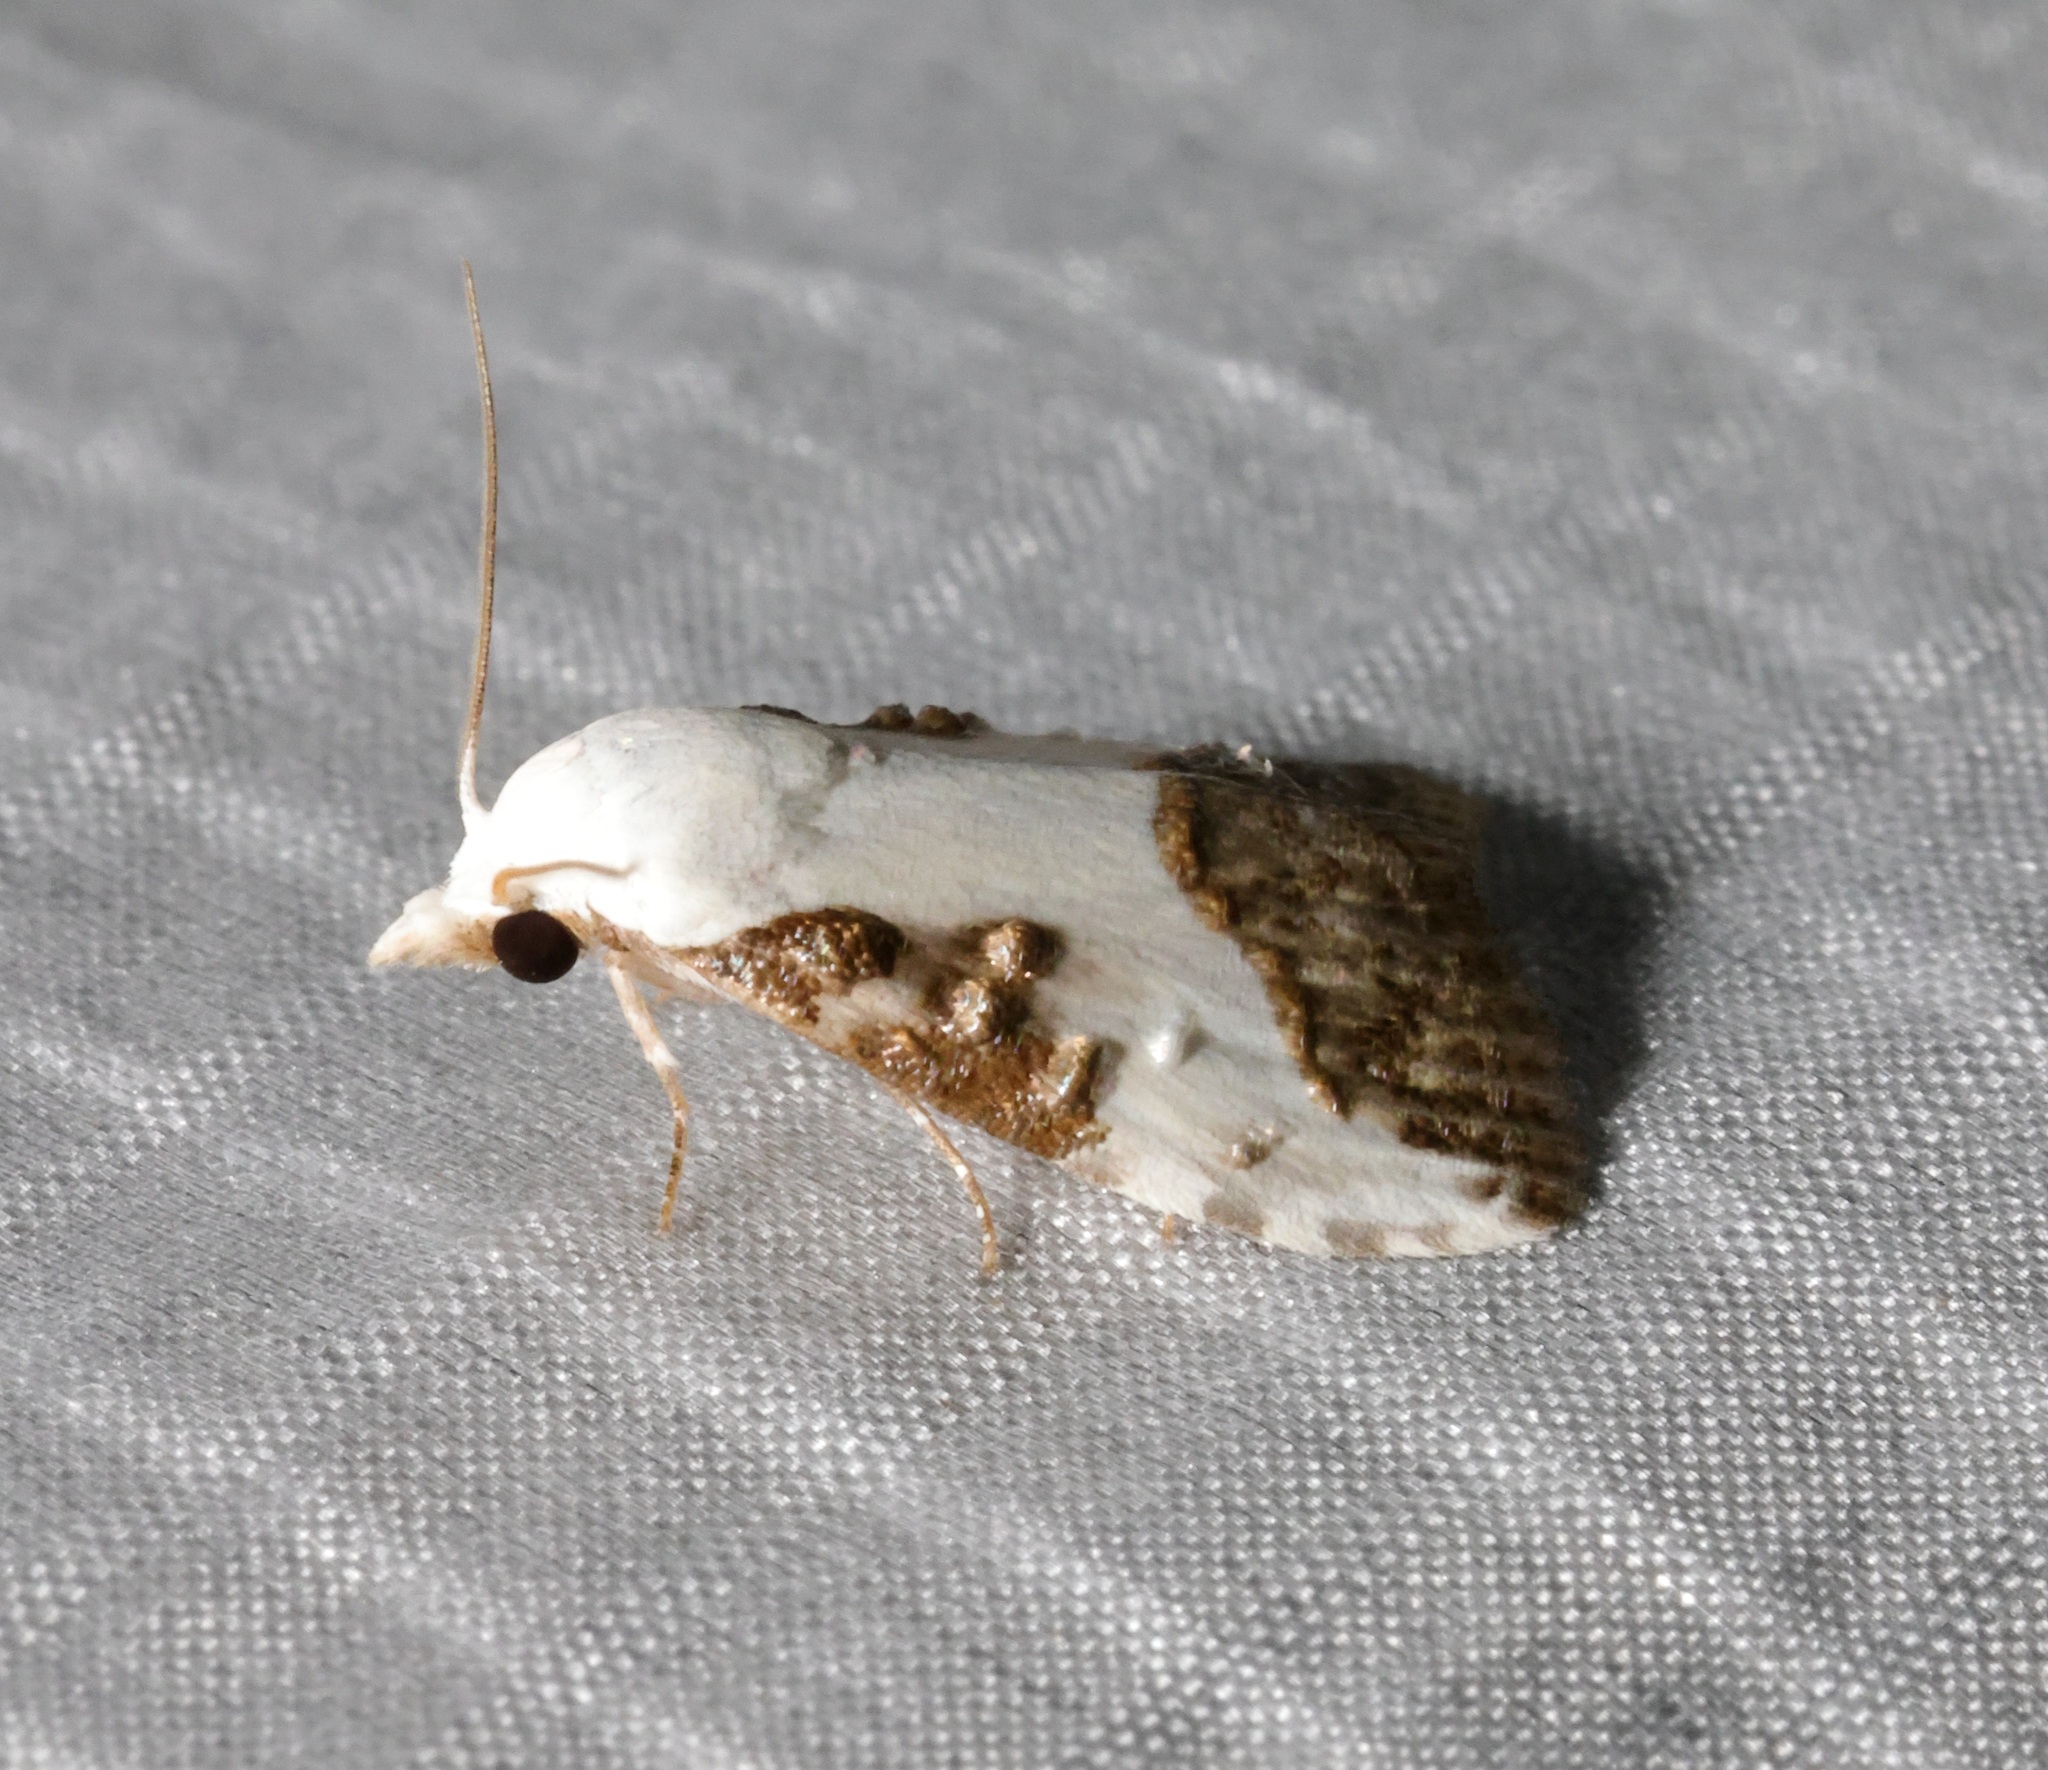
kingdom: Animalia
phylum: Arthropoda
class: Insecta
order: Lepidoptera
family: Nolidae
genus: Aeneanola
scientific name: Aeneanola acontioides
